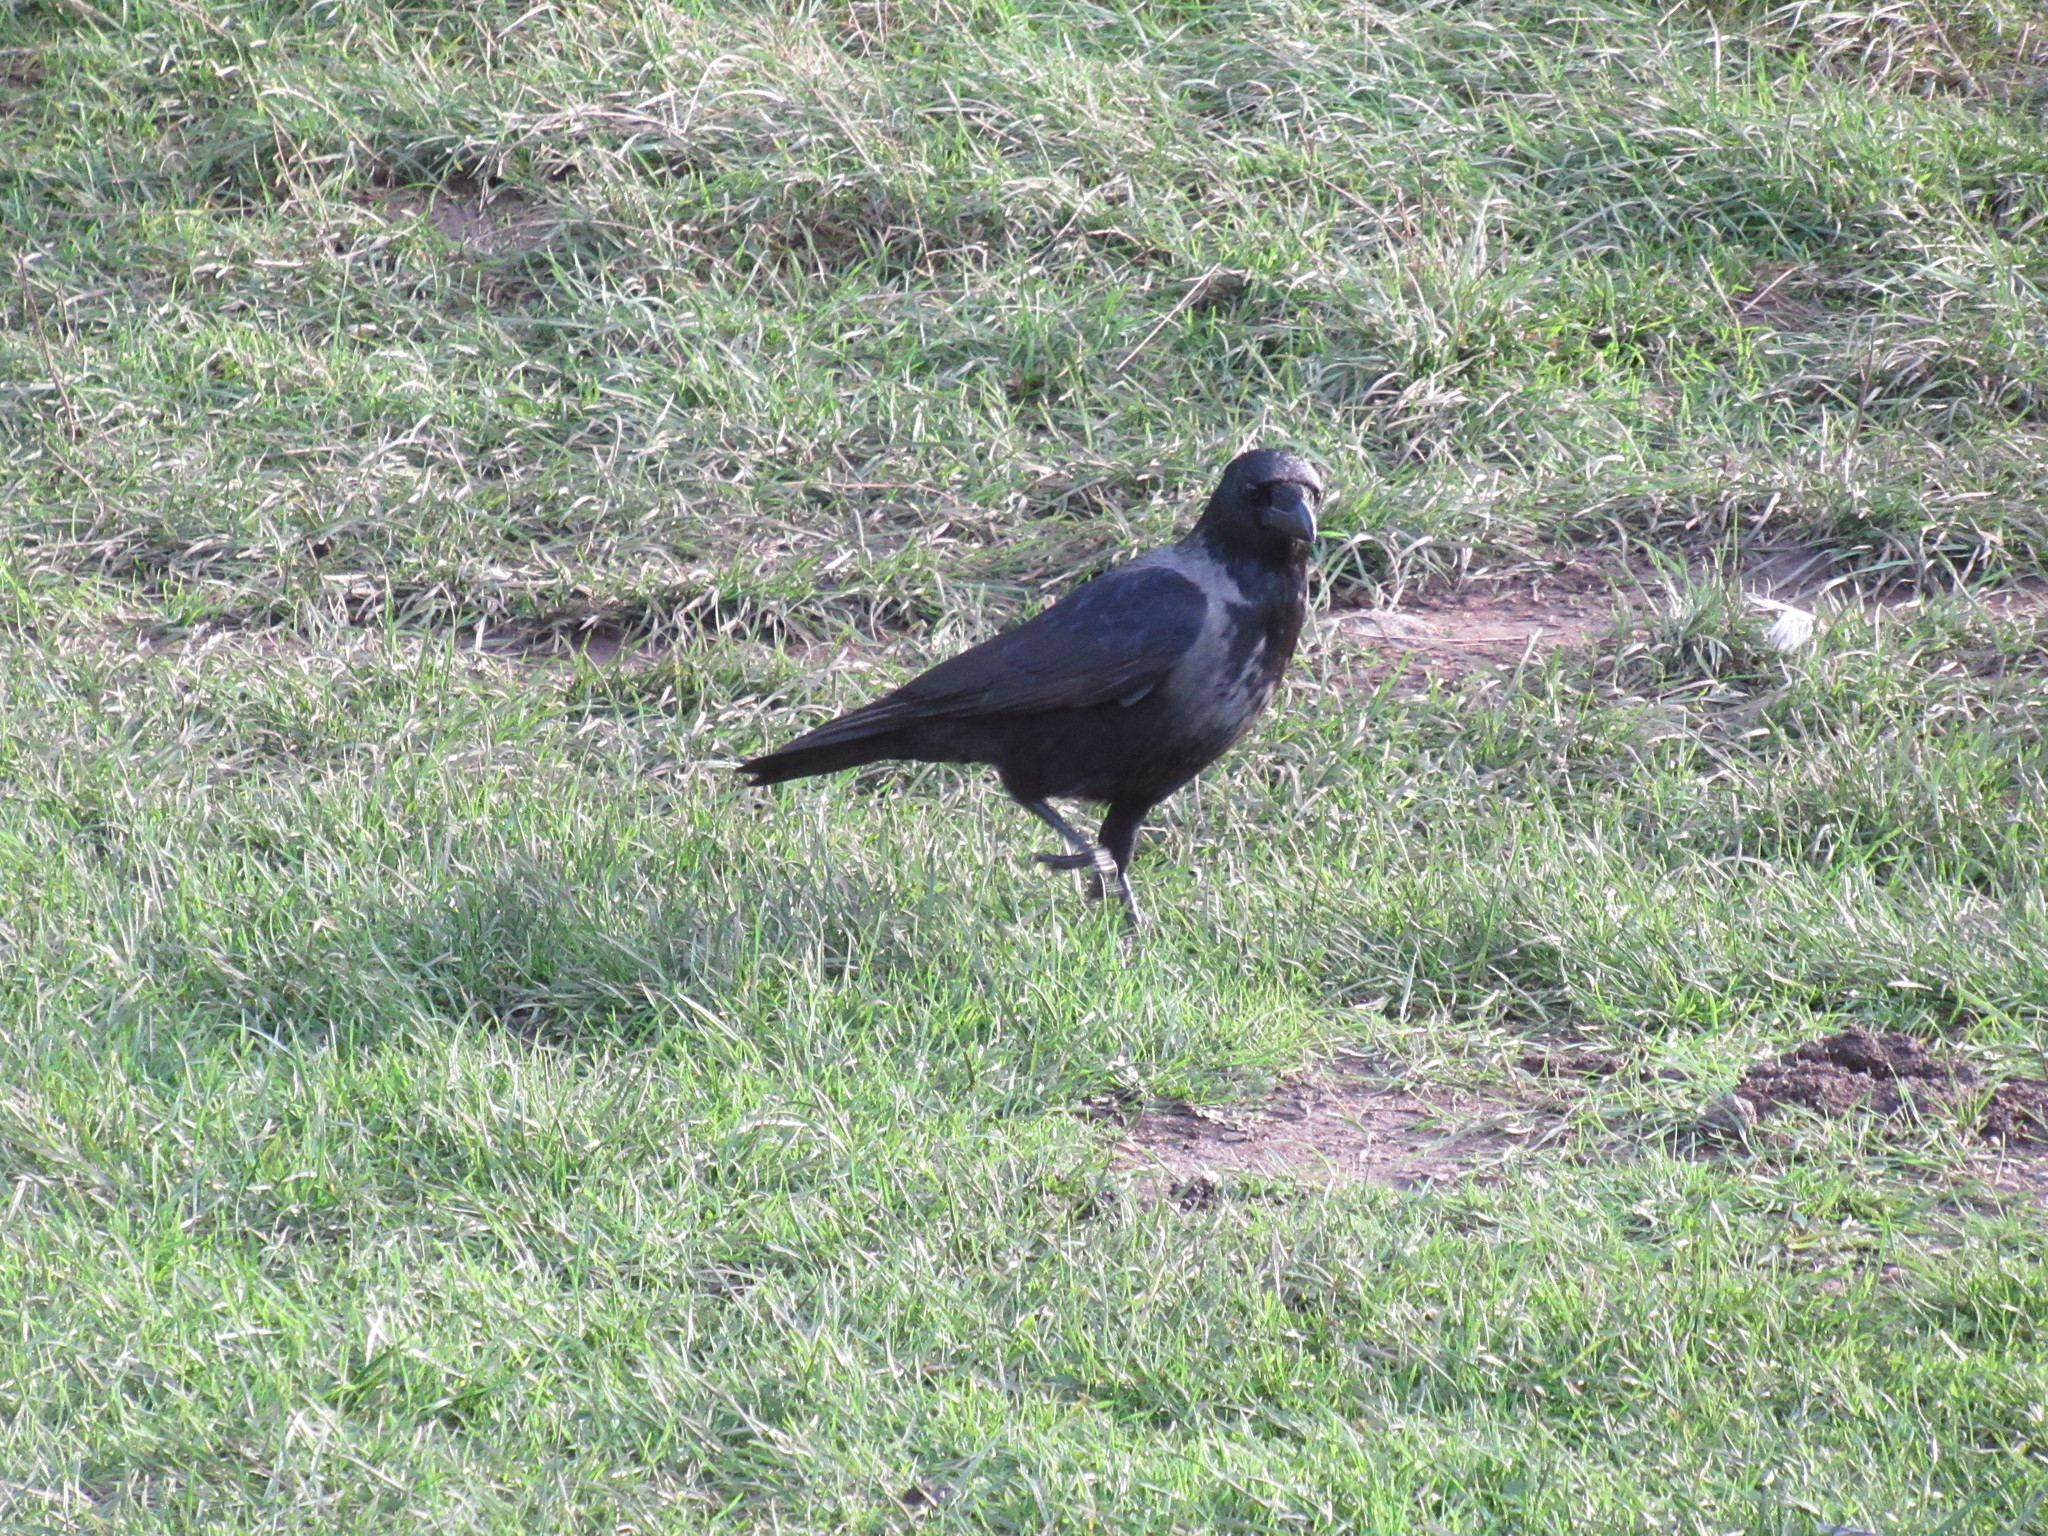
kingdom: Animalia
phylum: Chordata
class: Aves
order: Passeriformes
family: Corvidae
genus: Corvus
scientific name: Corvus
